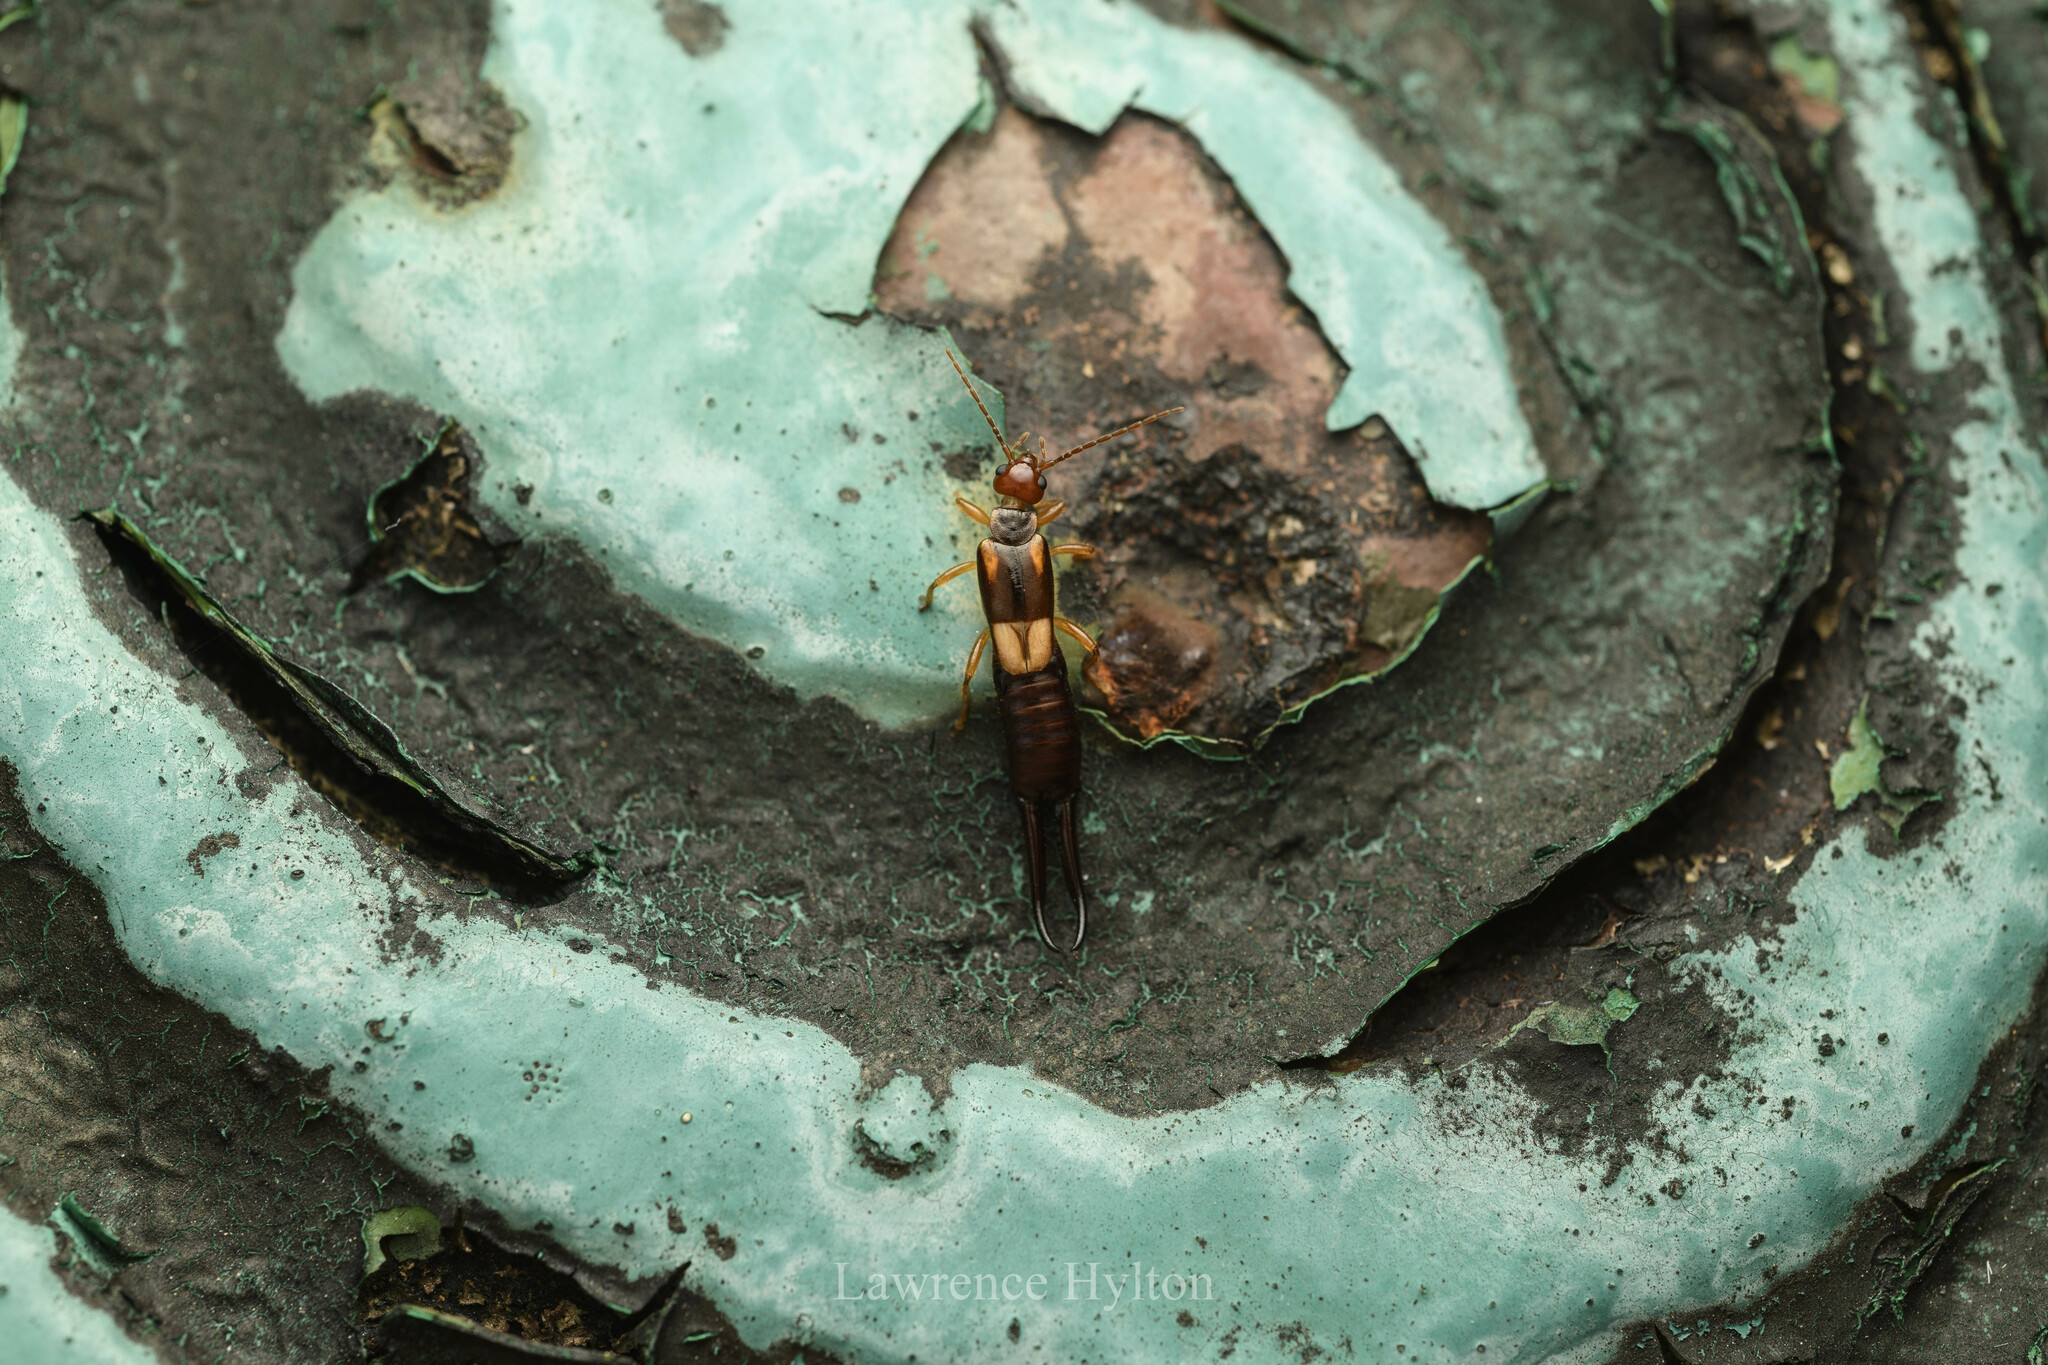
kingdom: Animalia
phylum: Arthropoda
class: Insecta
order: Dermaptera
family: Forficulidae
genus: Forficula
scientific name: Forficula greeni
